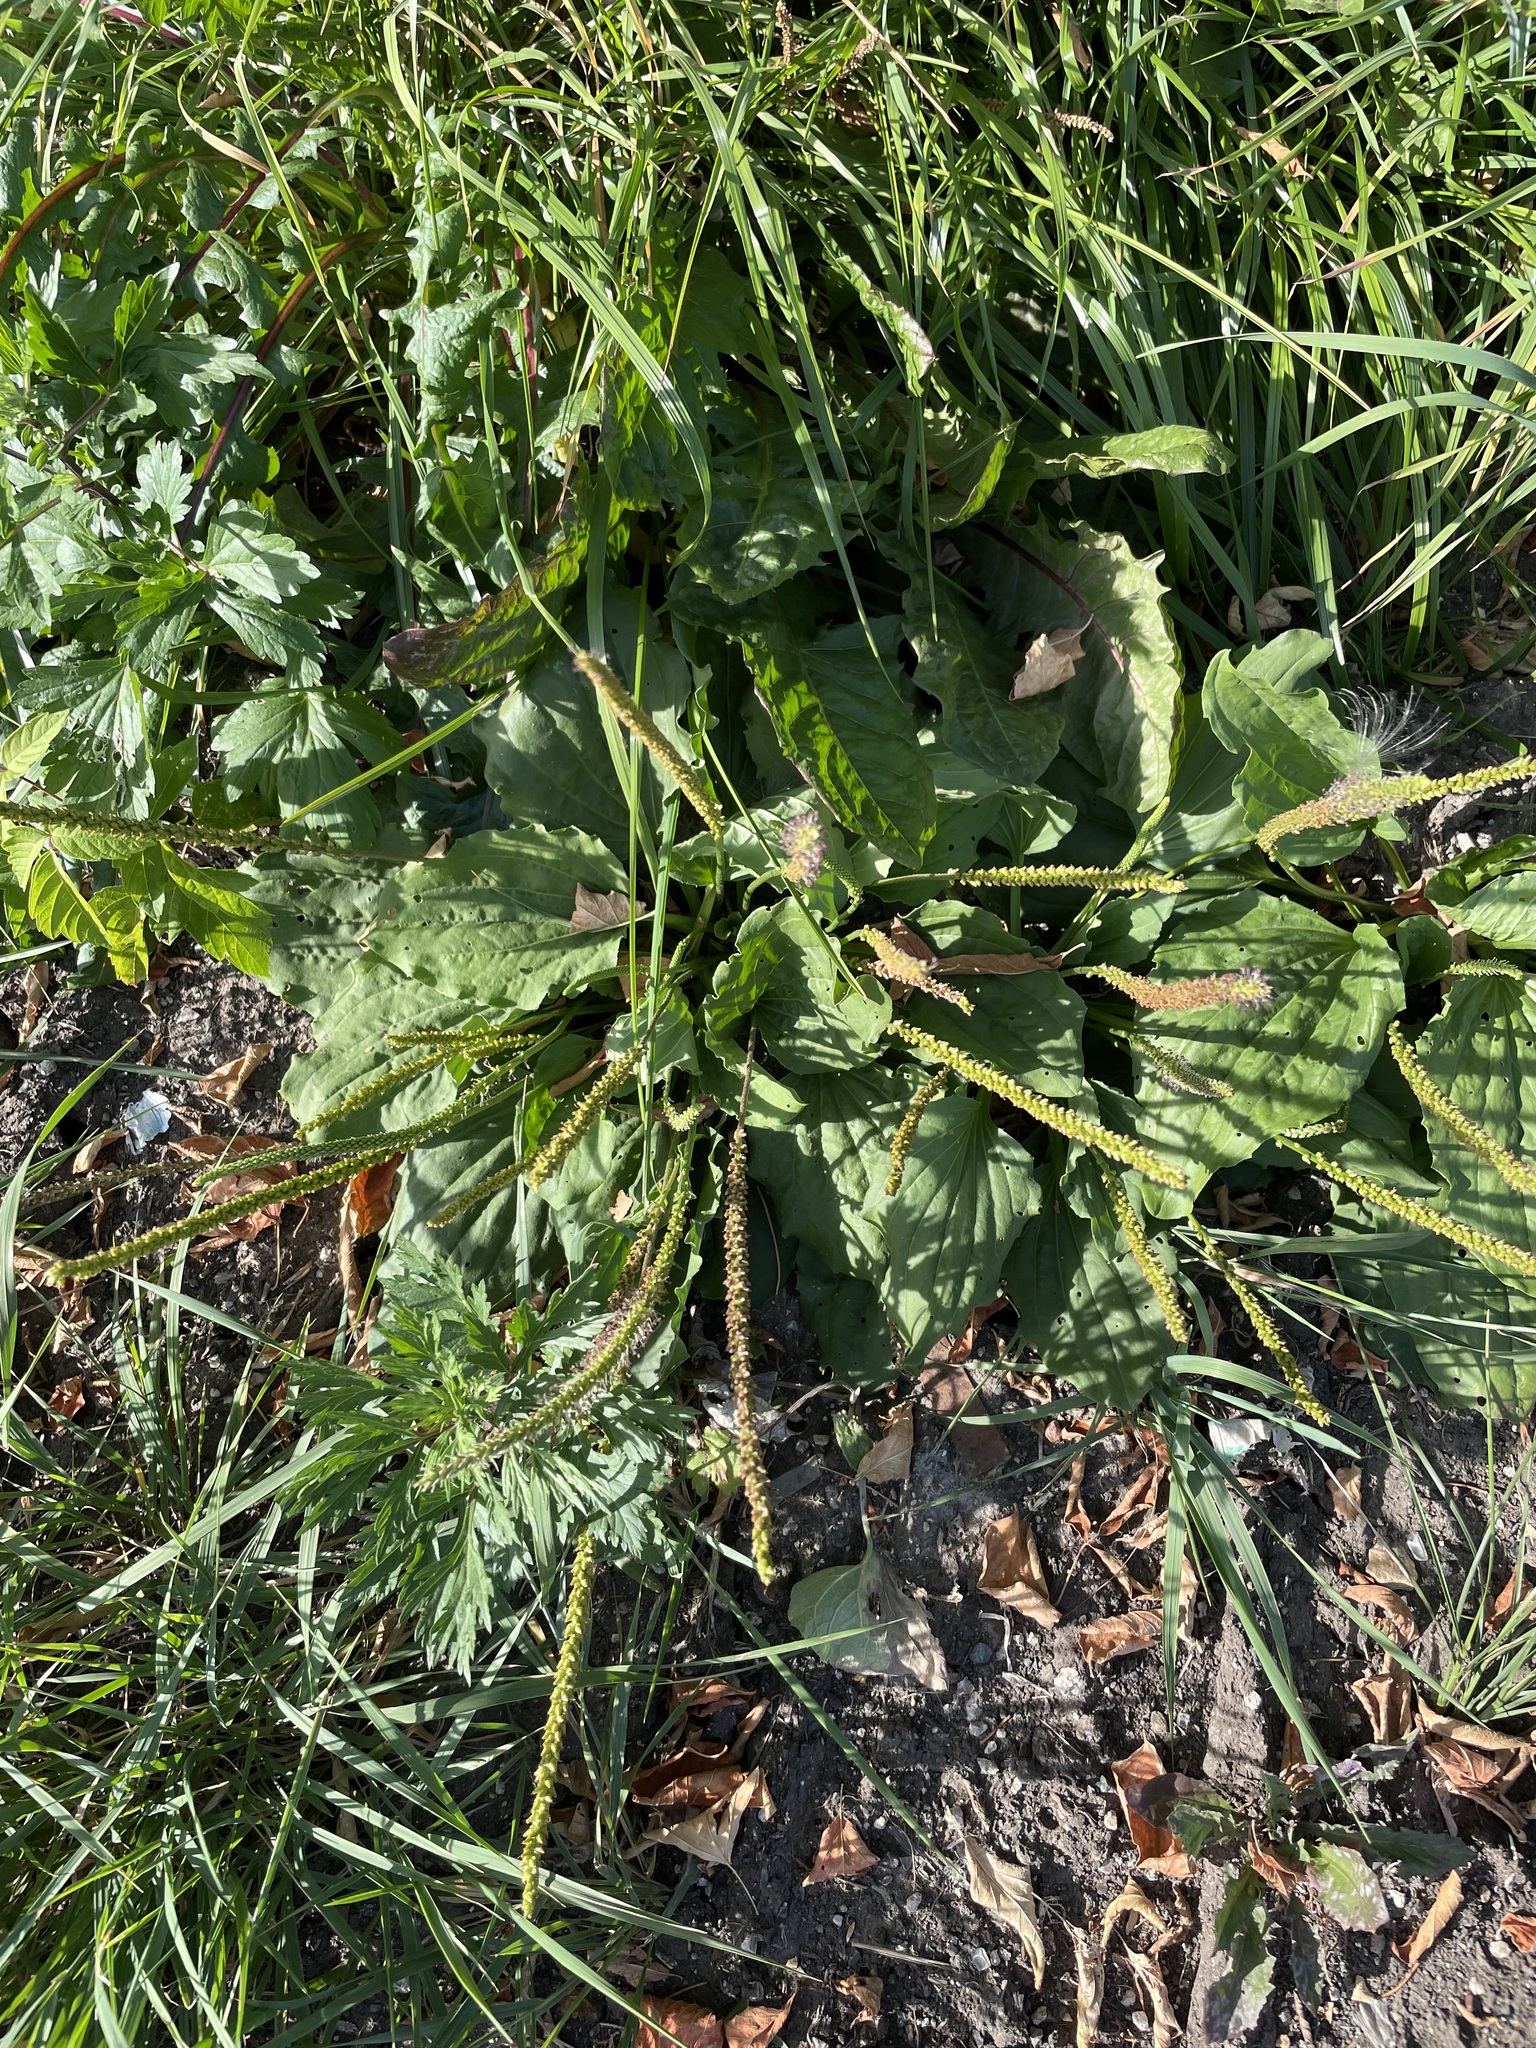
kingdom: Plantae
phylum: Tracheophyta
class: Magnoliopsida
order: Lamiales
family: Plantaginaceae
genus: Plantago
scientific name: Plantago major
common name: Common plantain
